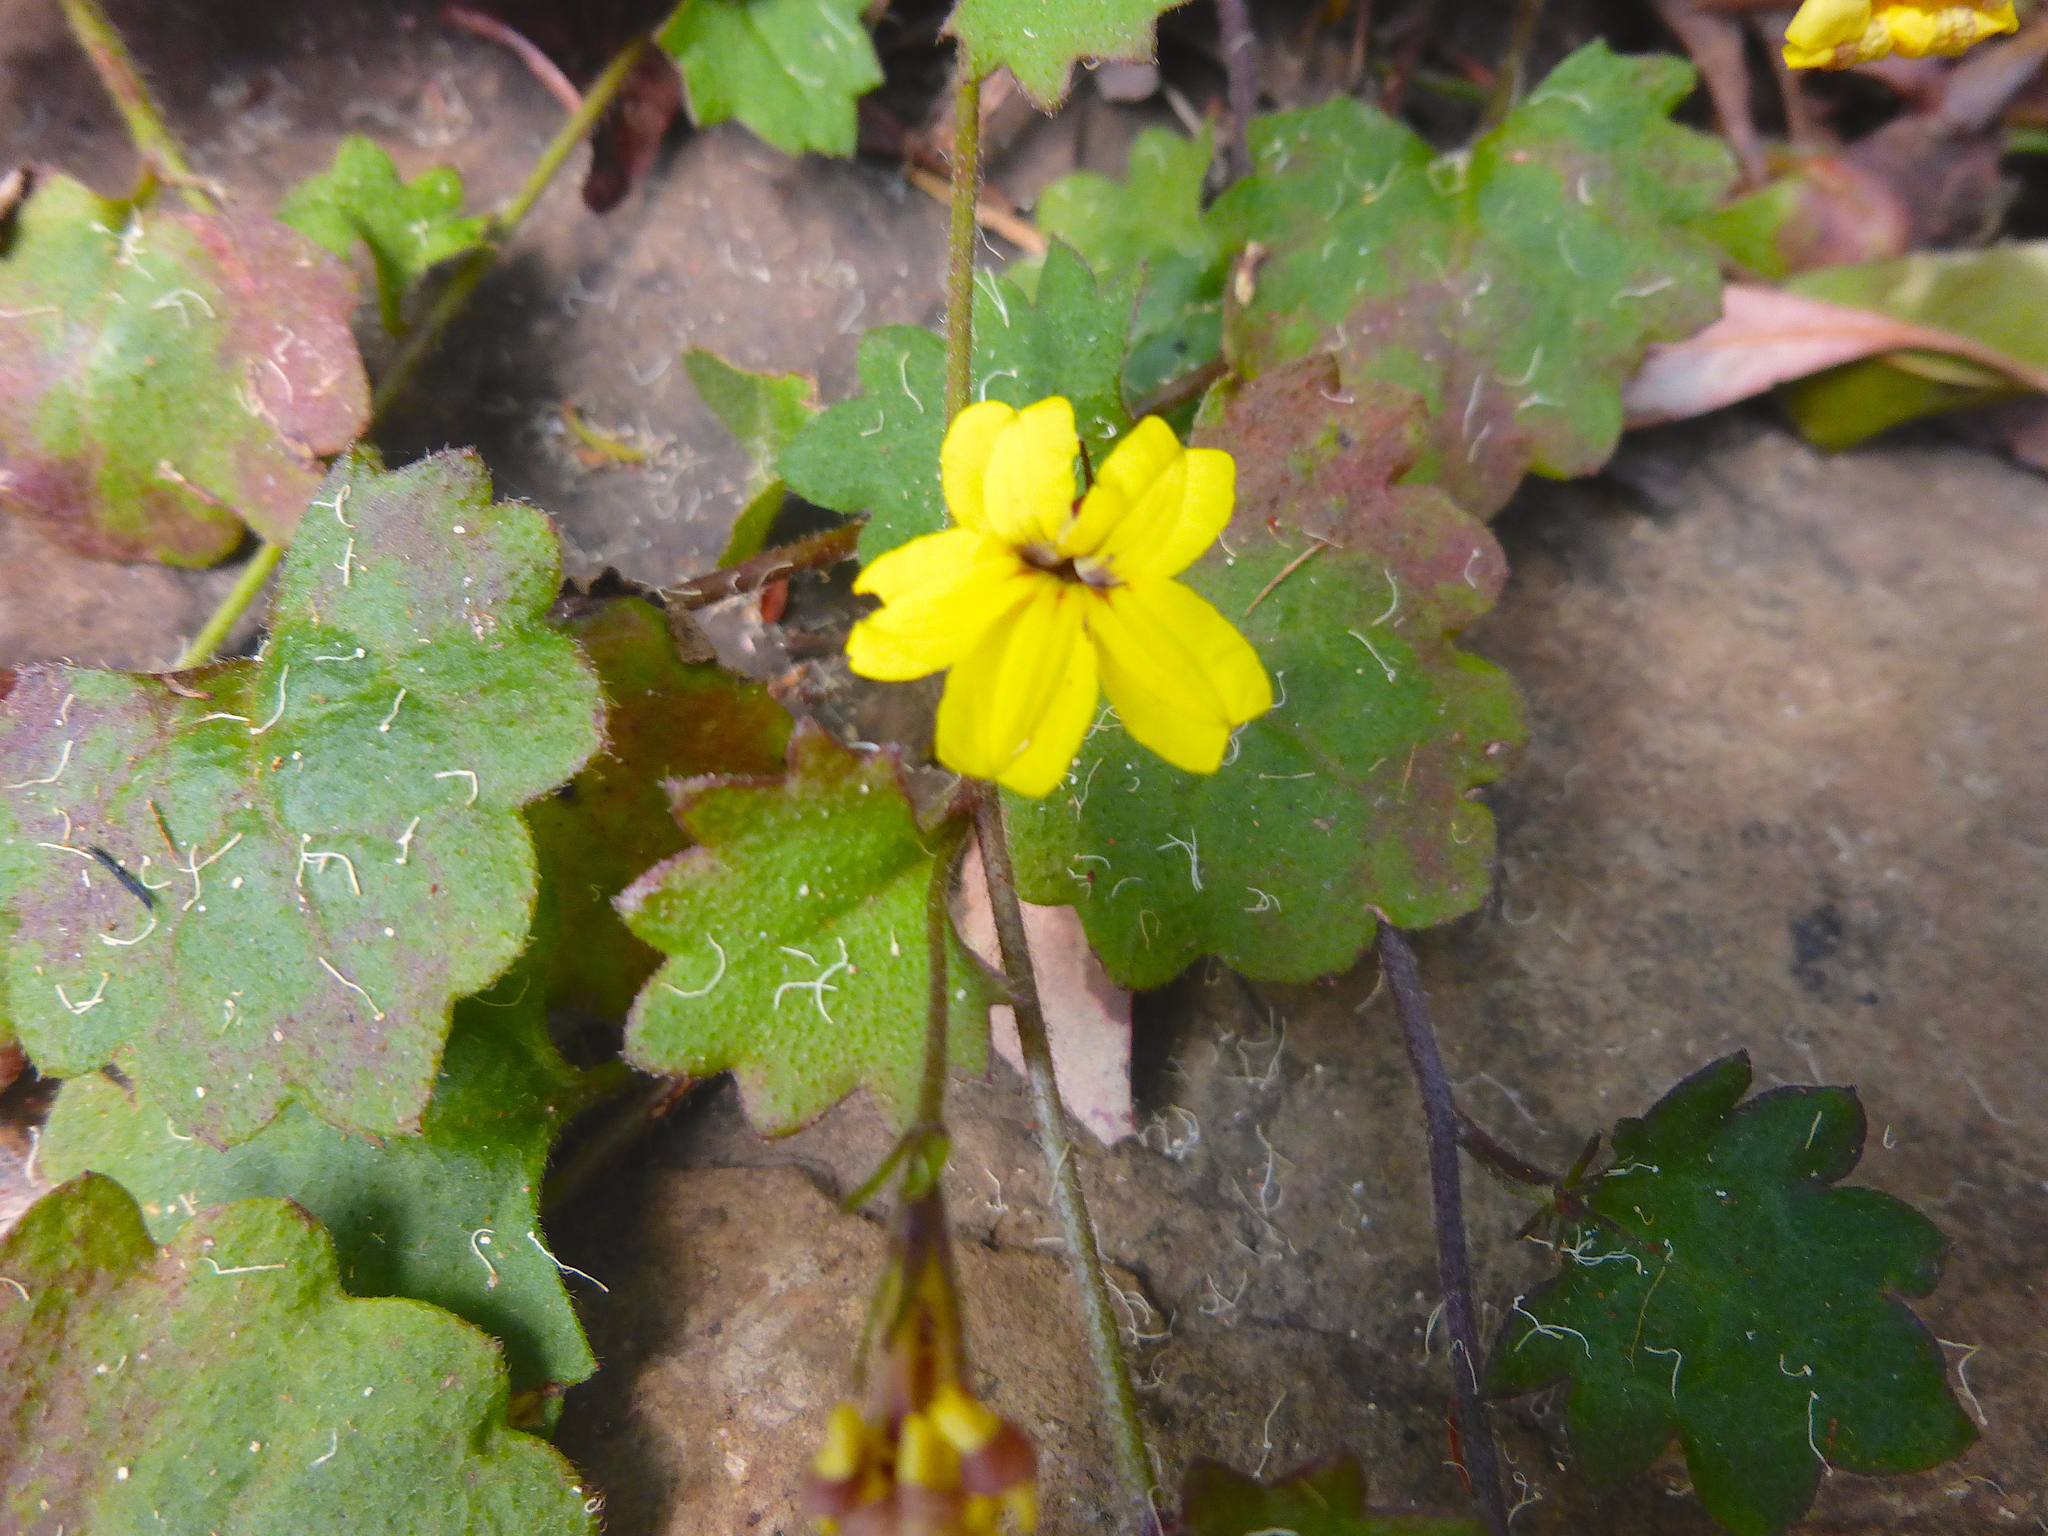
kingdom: Plantae
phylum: Tracheophyta
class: Magnoliopsida
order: Asterales
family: Goodeniaceae
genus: Goodenia
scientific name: Goodenia rotundifolia
